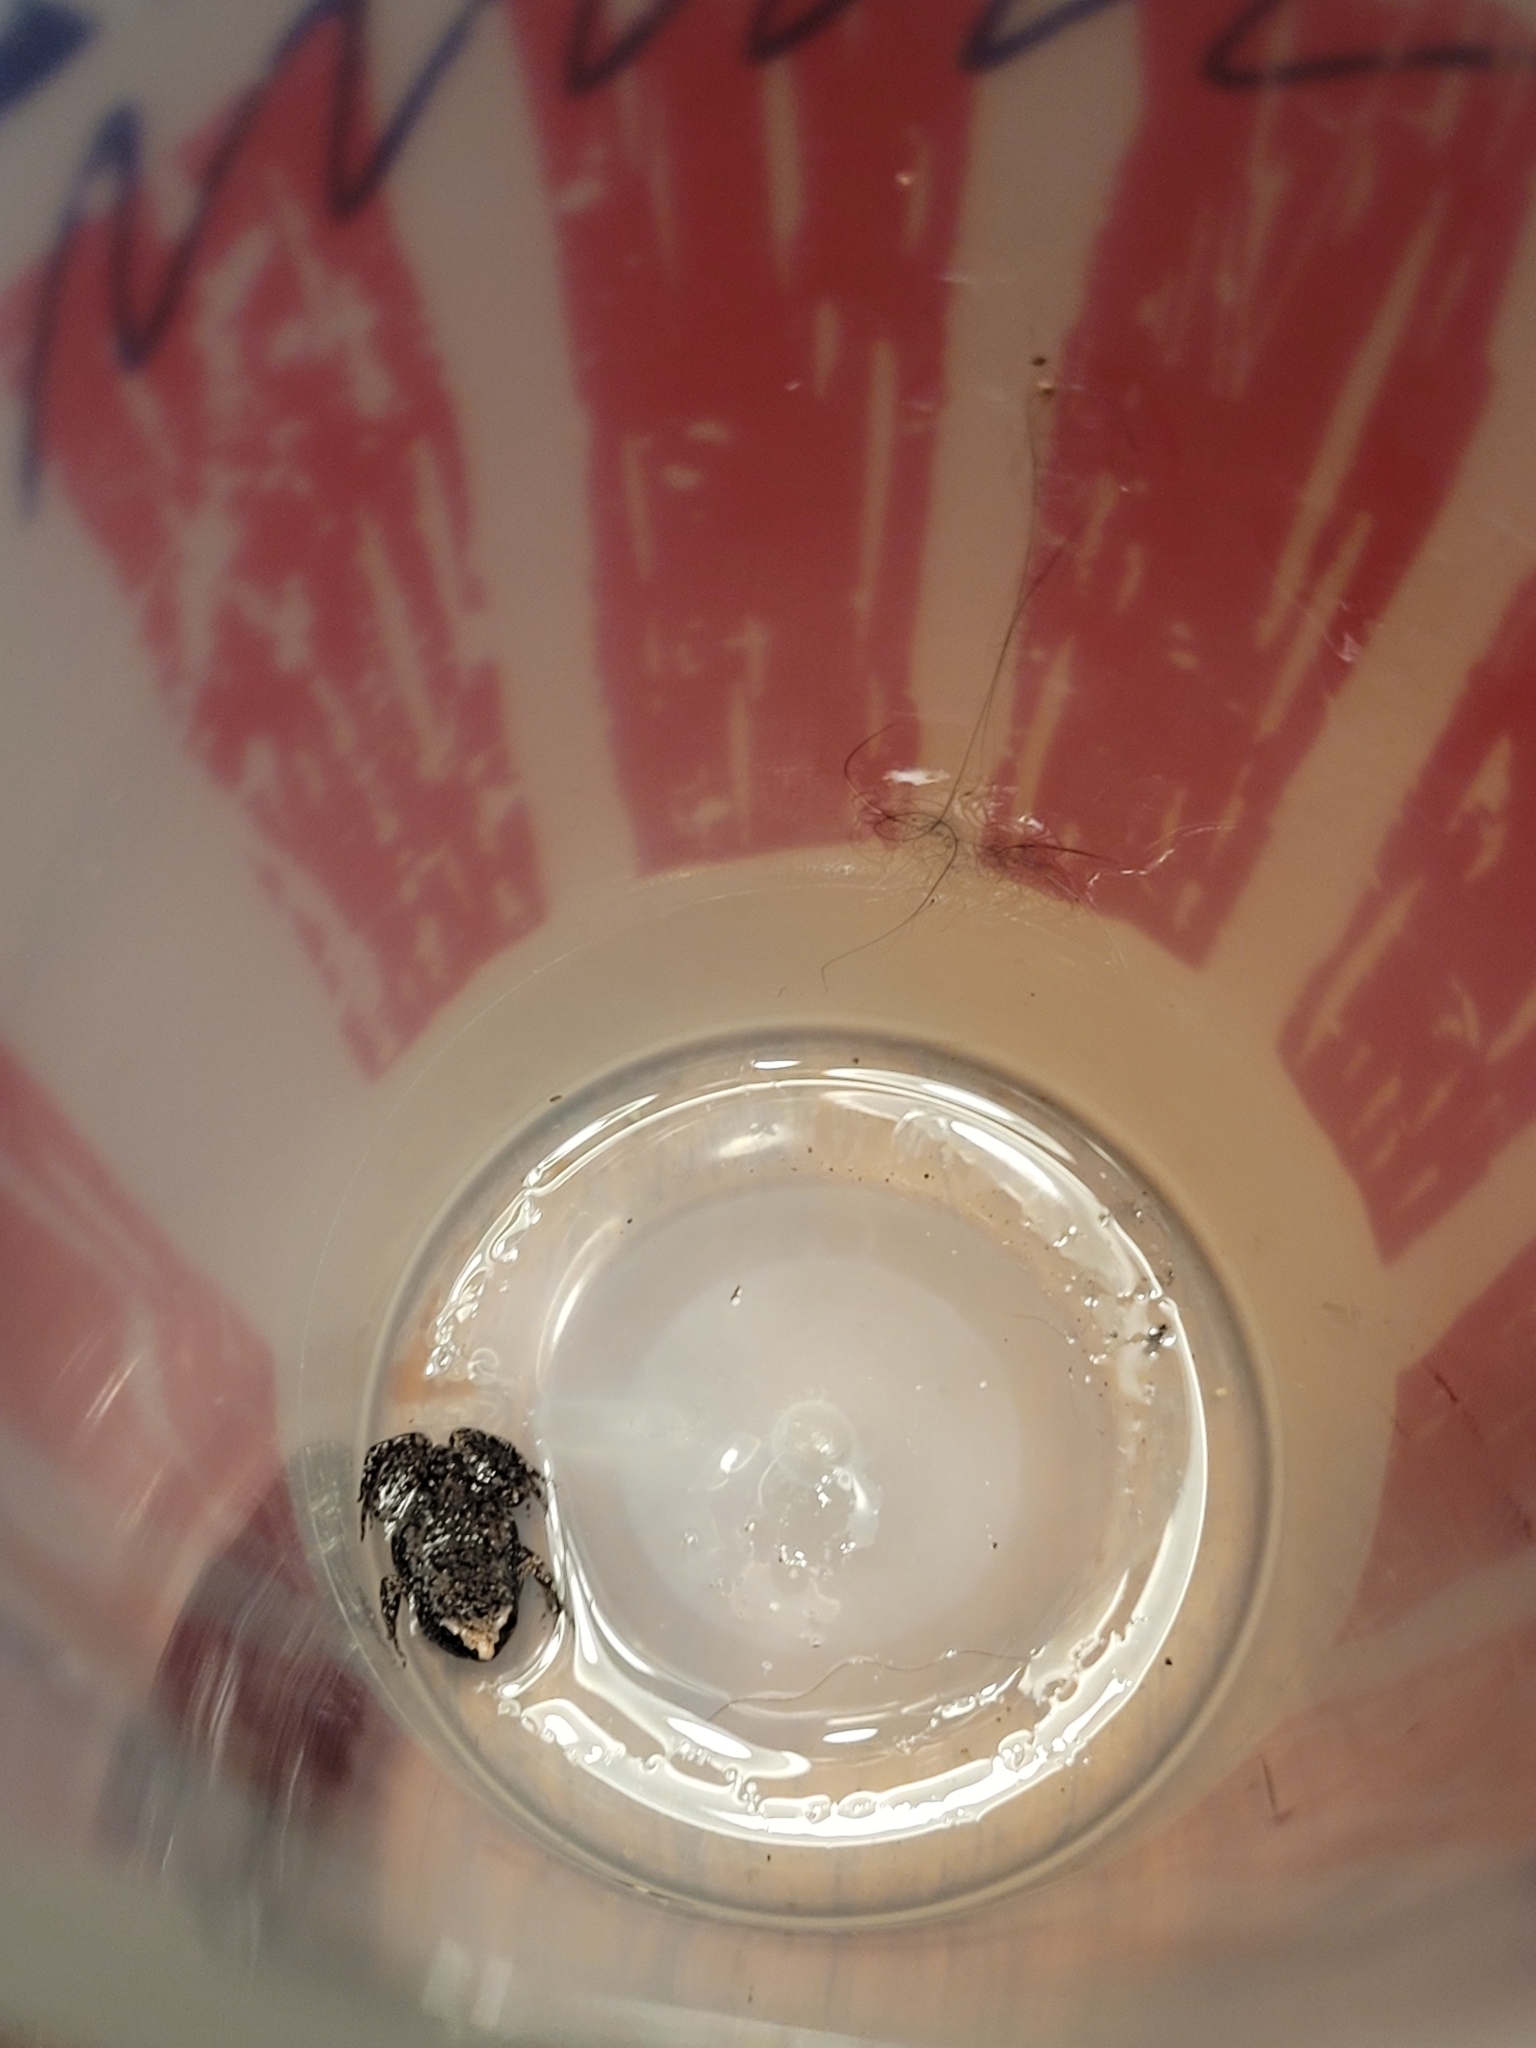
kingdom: Animalia
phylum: Chordata
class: Amphibia
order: Anura
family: Microhylidae
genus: Gastrophryne
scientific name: Gastrophryne carolinensis
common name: Eastern narrowmouth toad
